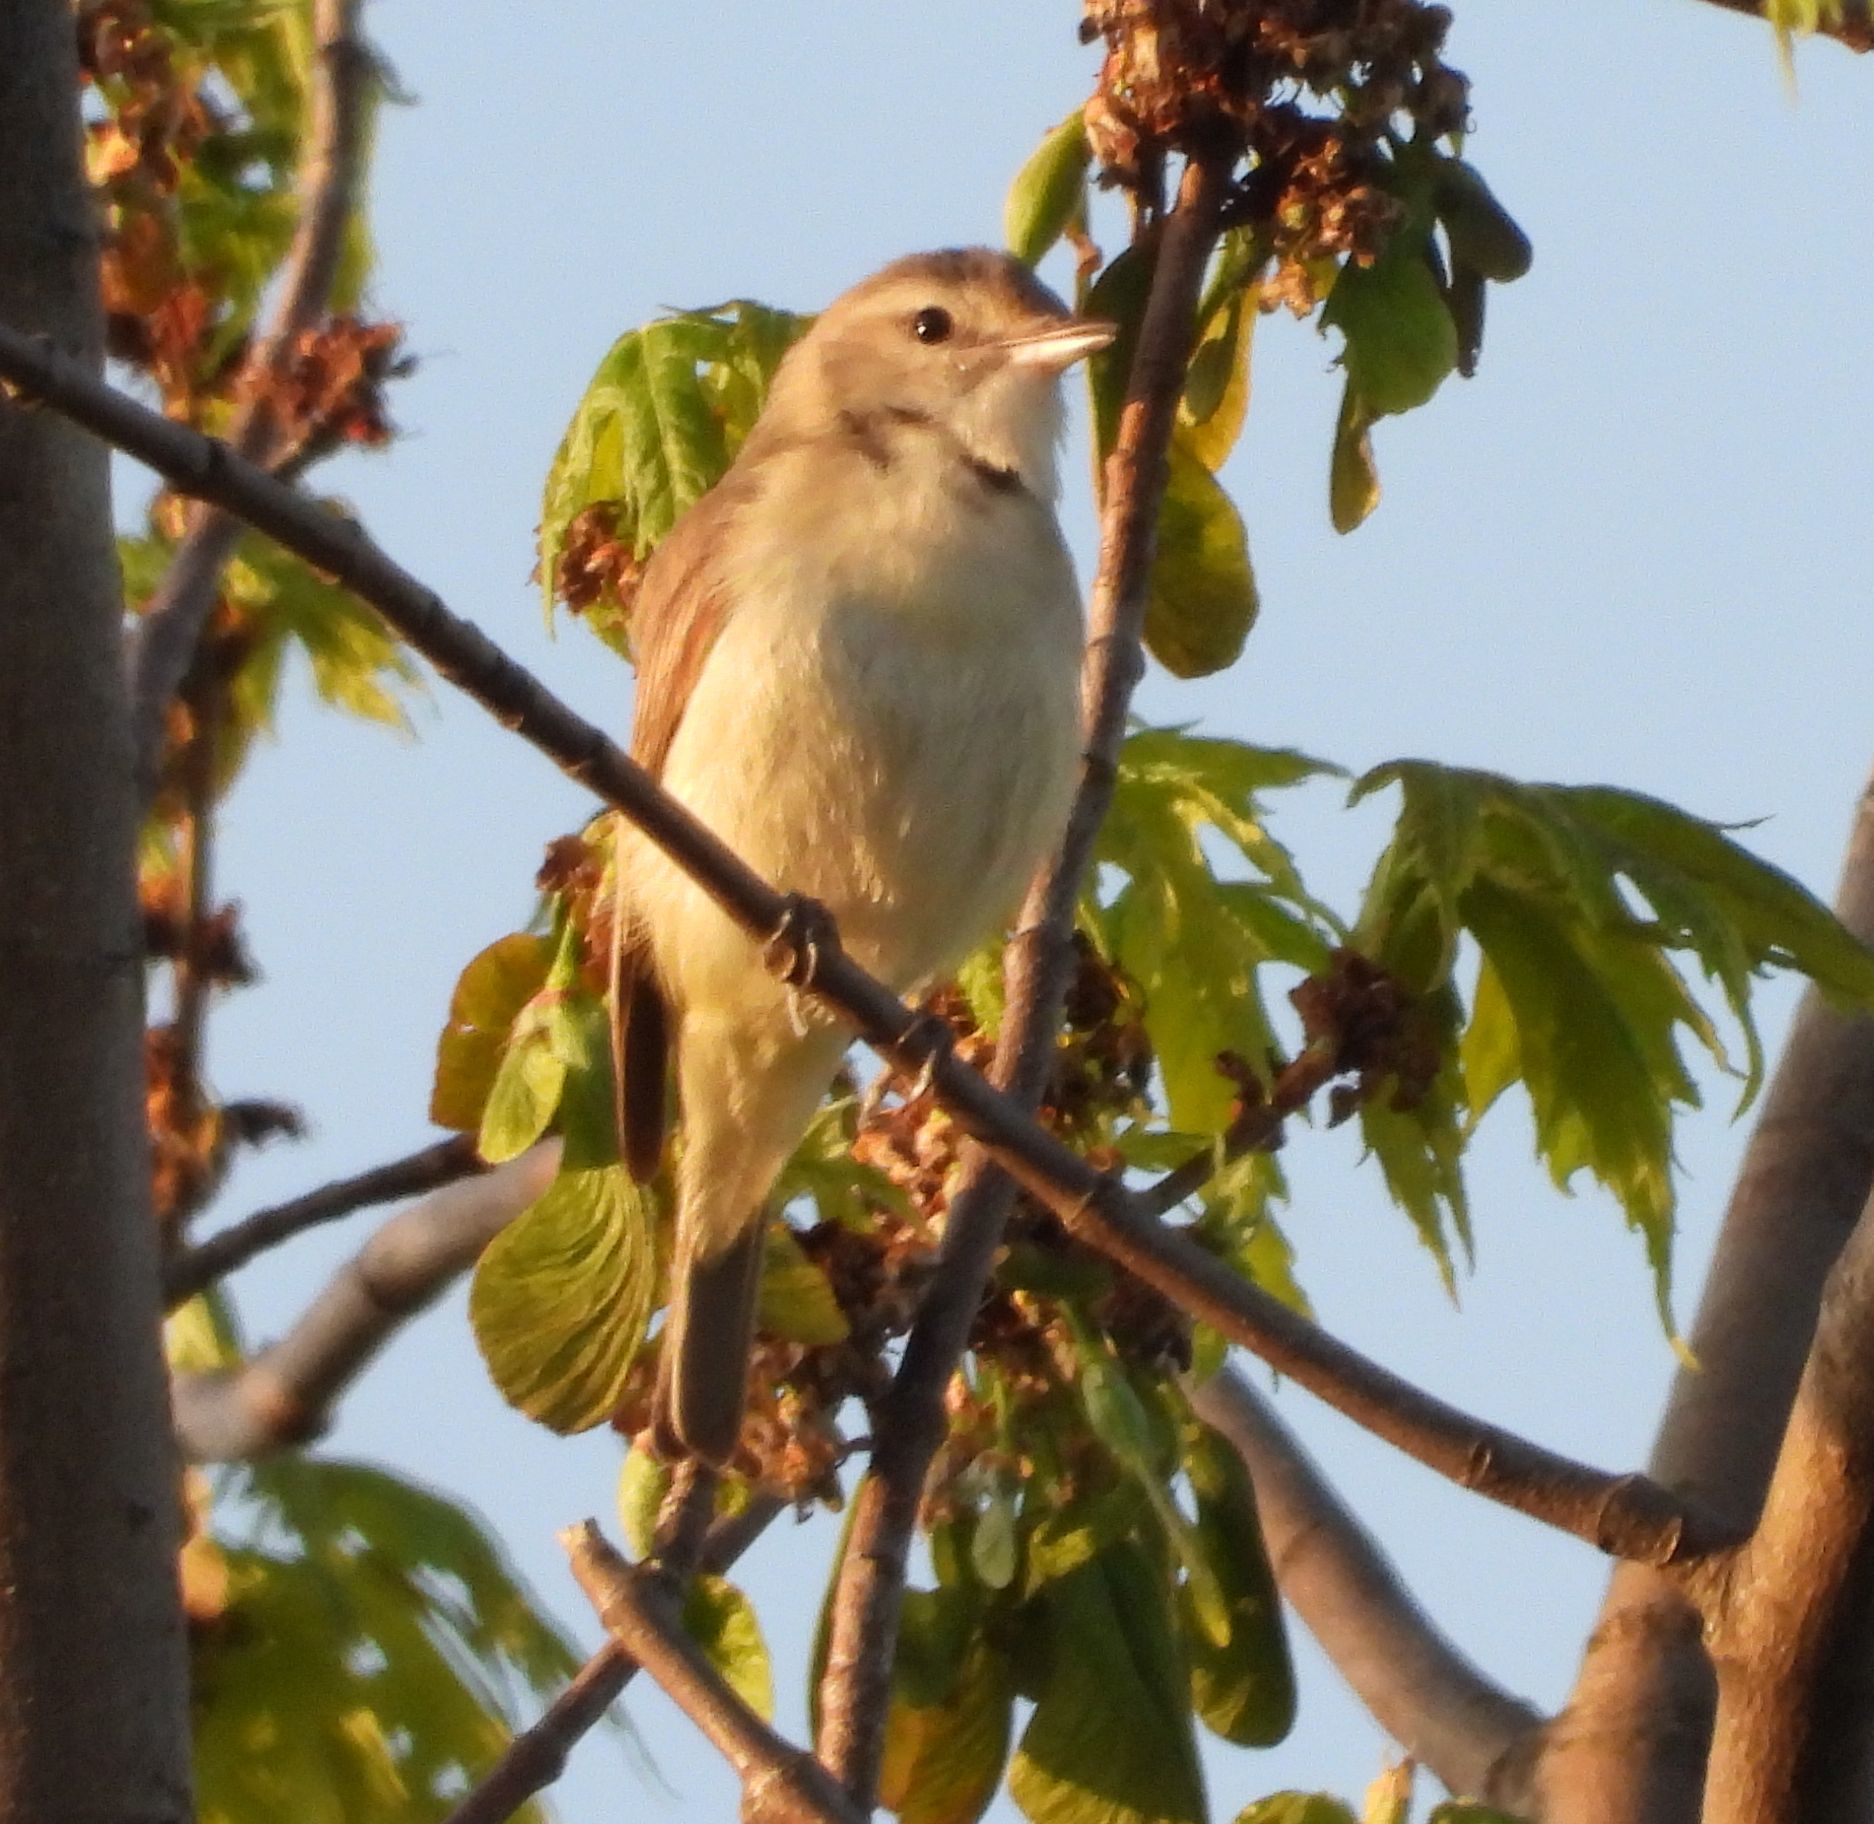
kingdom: Animalia
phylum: Chordata
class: Aves
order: Passeriformes
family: Vireonidae
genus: Vireo
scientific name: Vireo gilvus
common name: Warbling vireo
